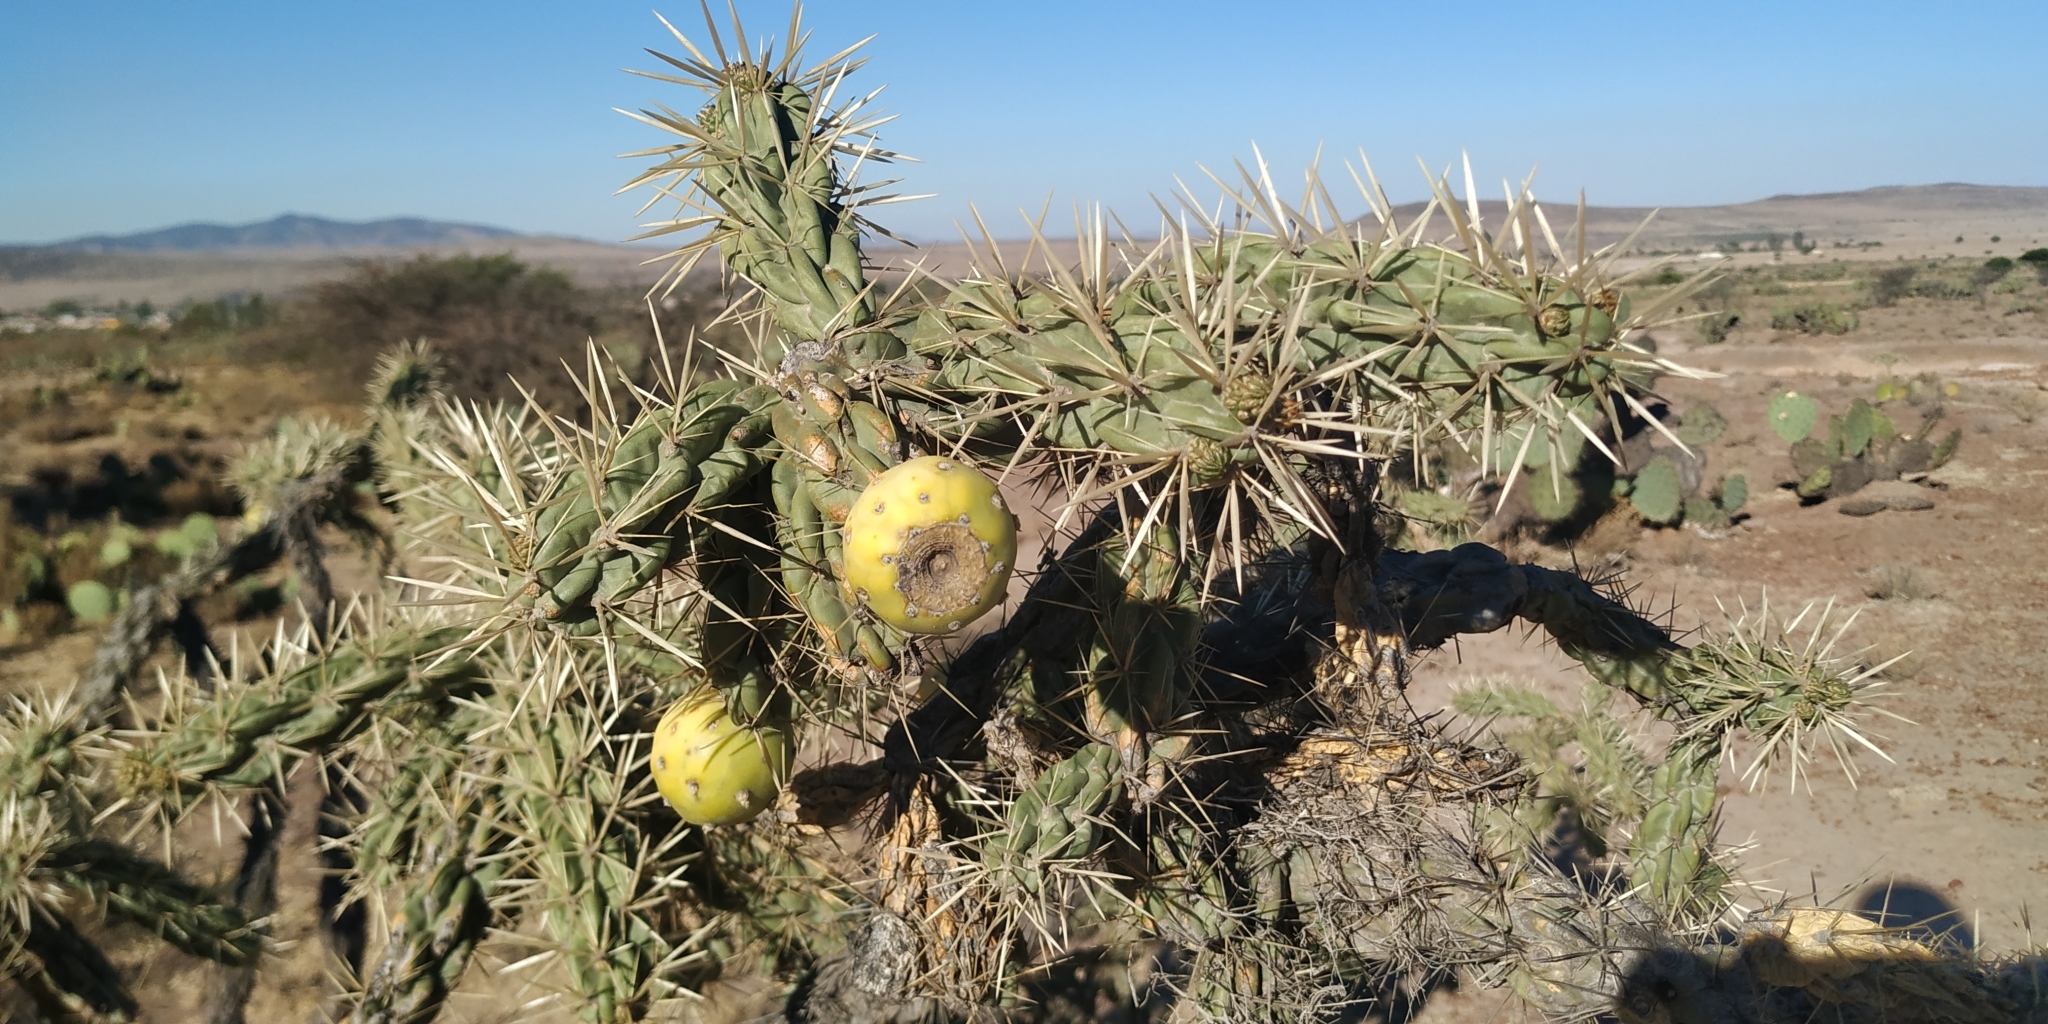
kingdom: Plantae
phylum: Tracheophyta
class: Magnoliopsida
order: Caryophyllales
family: Cactaceae
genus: Cylindropuntia
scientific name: Cylindropuntia imbricata
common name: Candelabrum cactus
